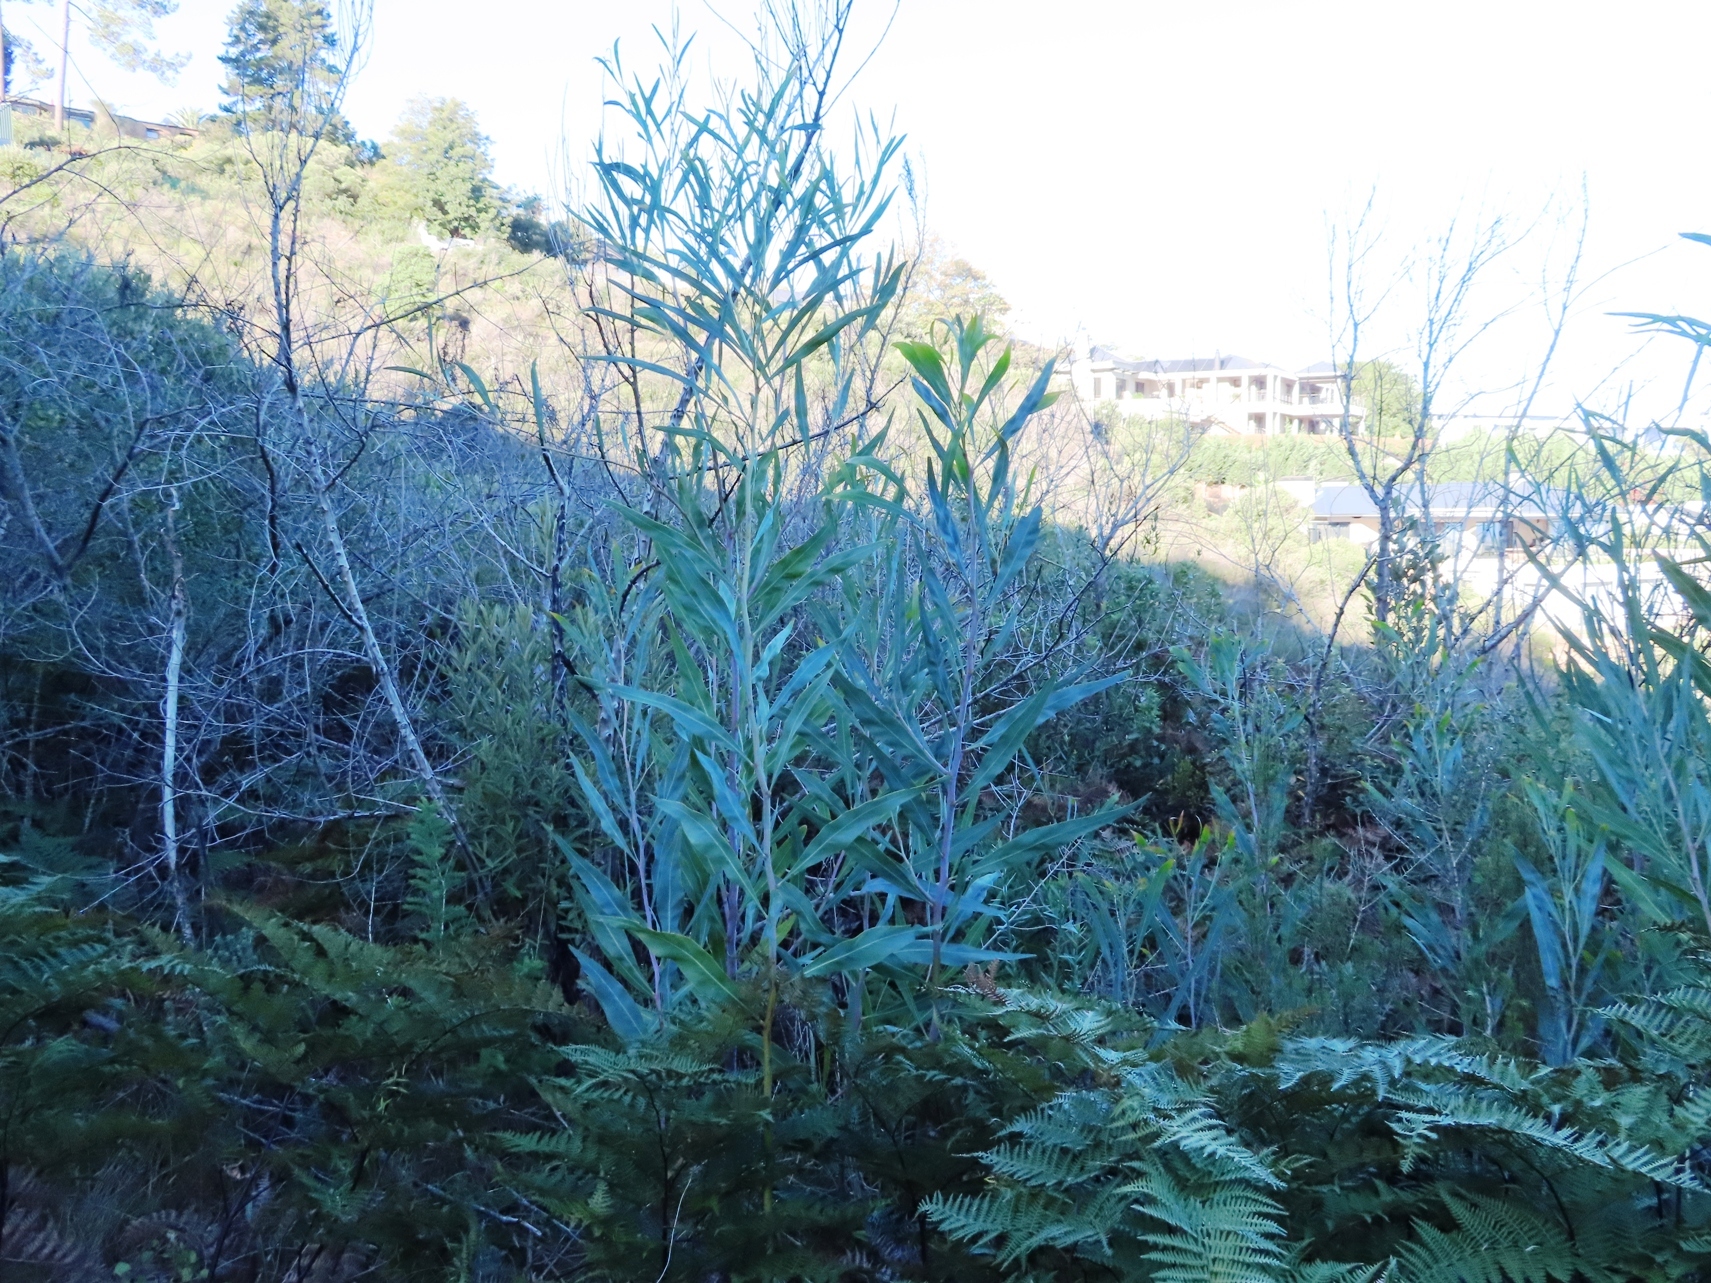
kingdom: Plantae
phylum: Tracheophyta
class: Magnoliopsida
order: Fabales
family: Fabaceae
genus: Acacia
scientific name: Acacia saligna
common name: Orange wattle
